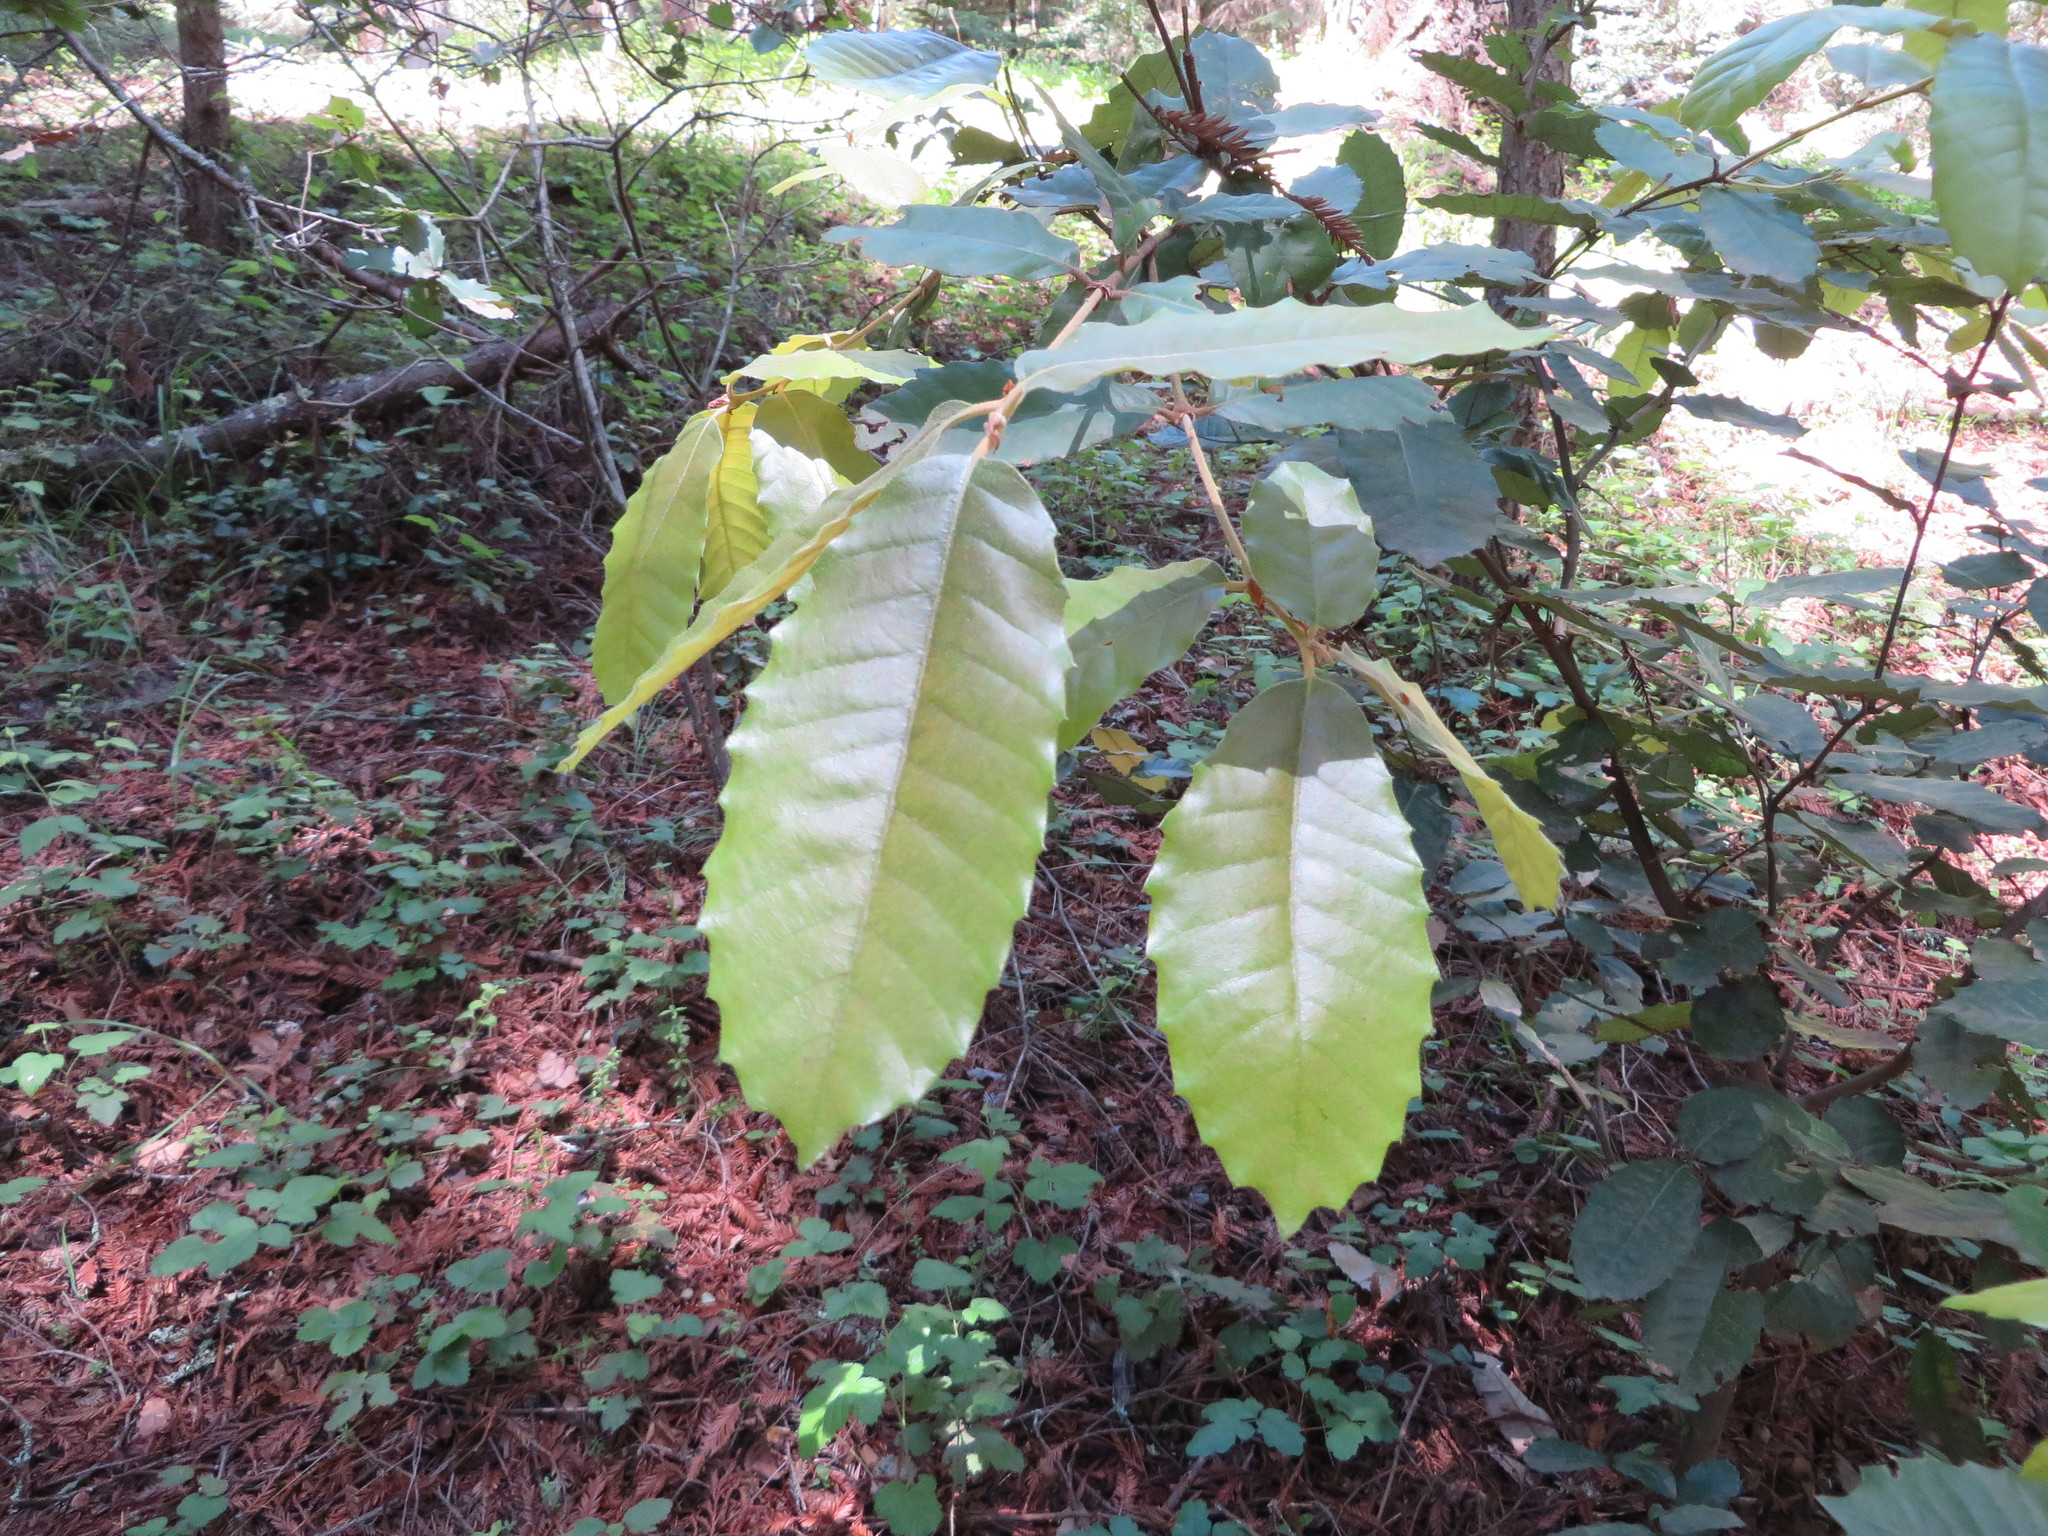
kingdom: Plantae
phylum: Tracheophyta
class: Magnoliopsida
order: Fagales
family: Fagaceae
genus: Notholithocarpus
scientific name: Notholithocarpus densiflorus
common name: Tan bark oak
